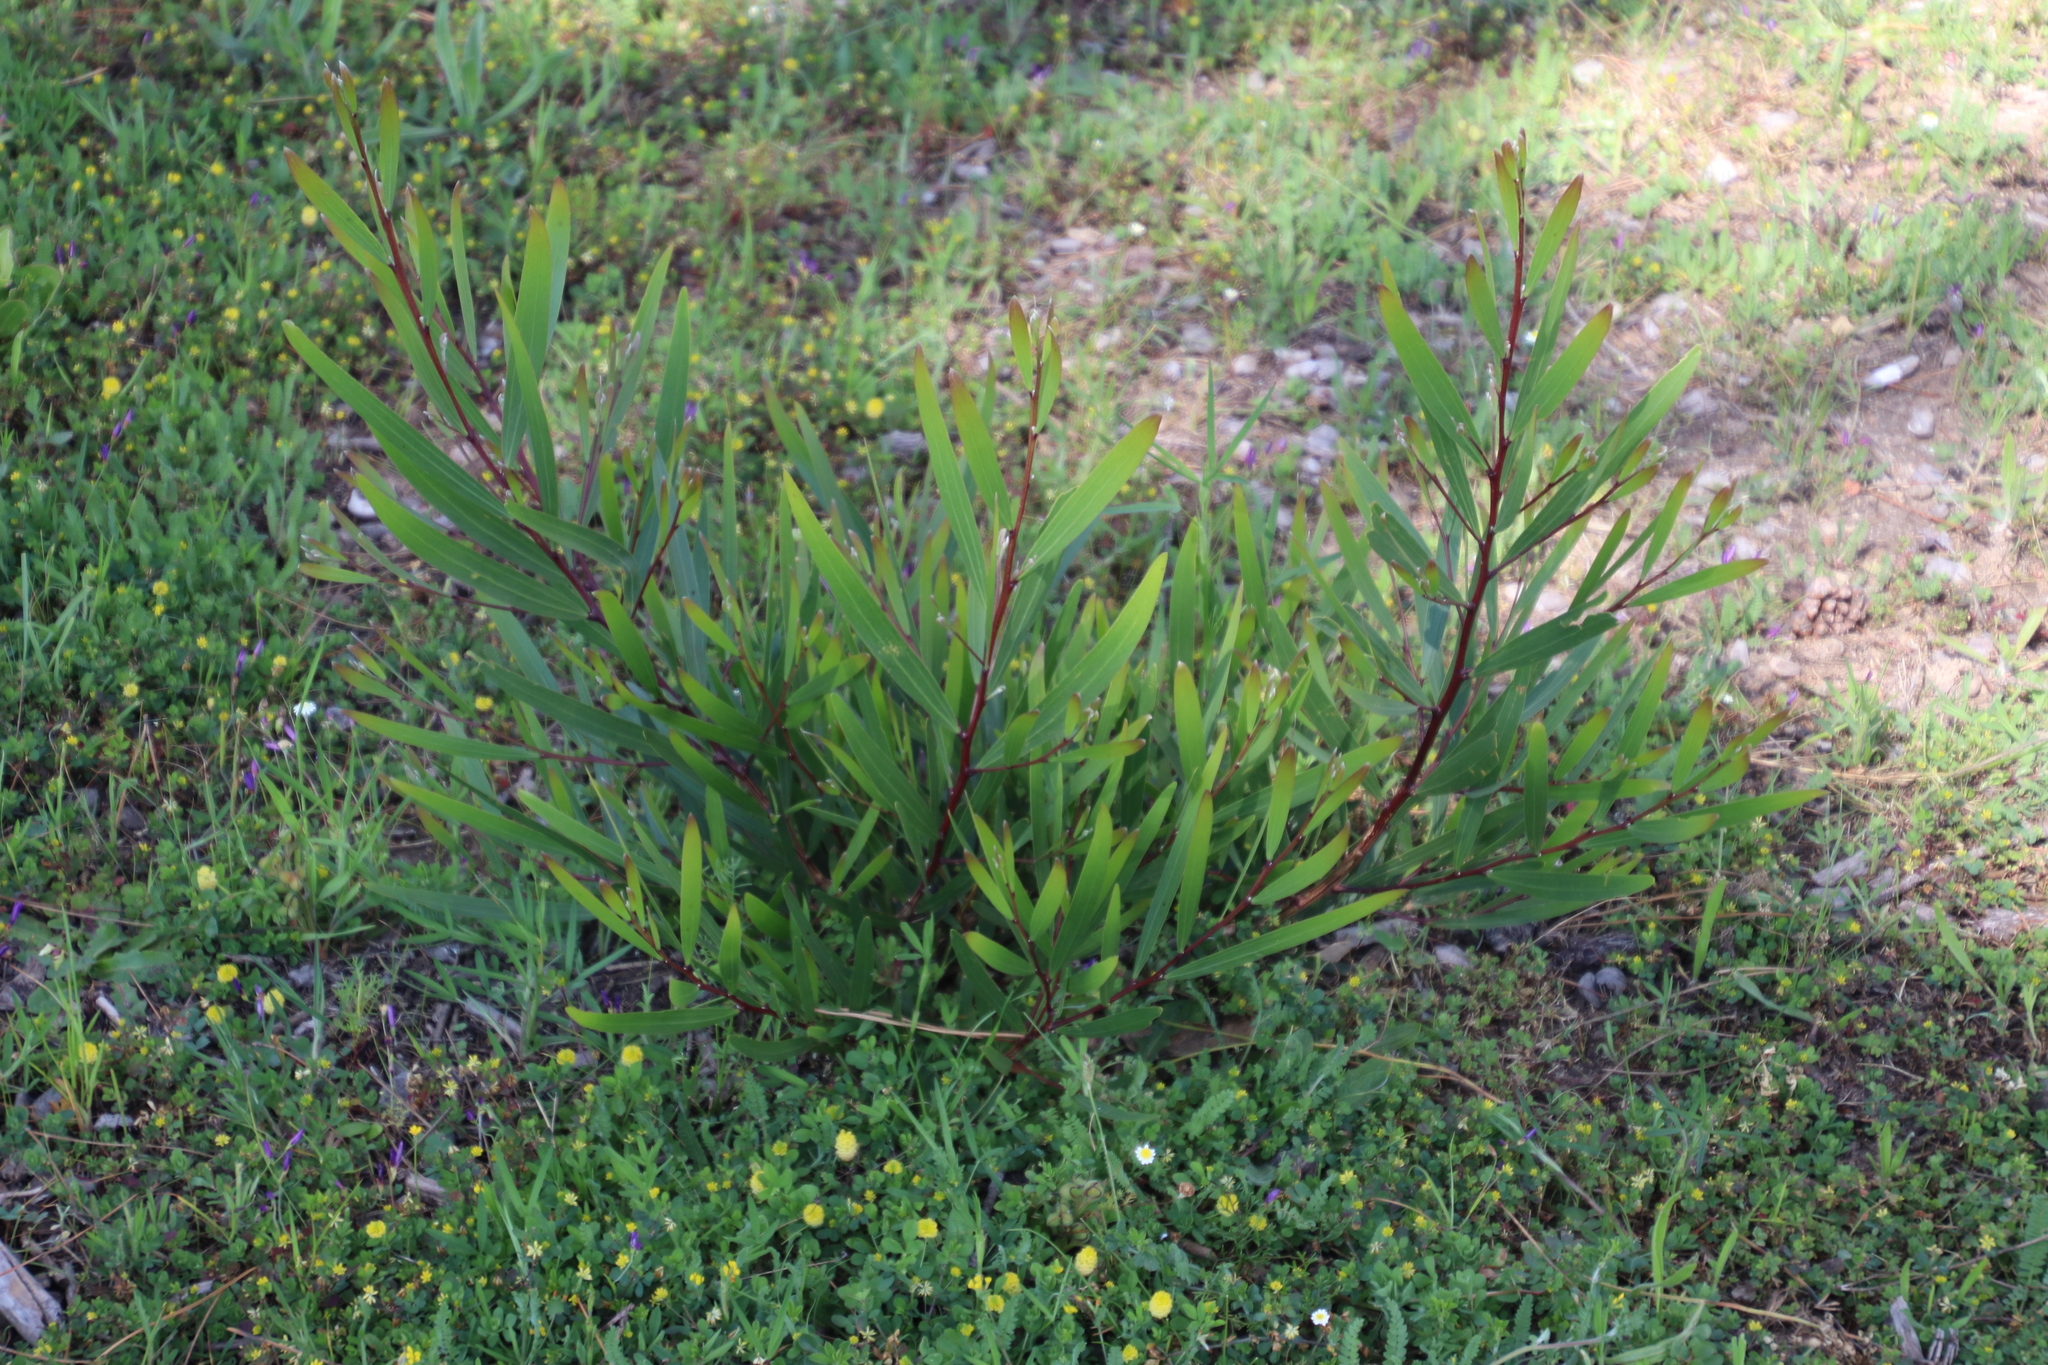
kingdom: Plantae
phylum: Tracheophyta
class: Magnoliopsida
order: Fabales
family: Fabaceae
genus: Acacia
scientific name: Acacia longifolia
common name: Sydney golden wattle
